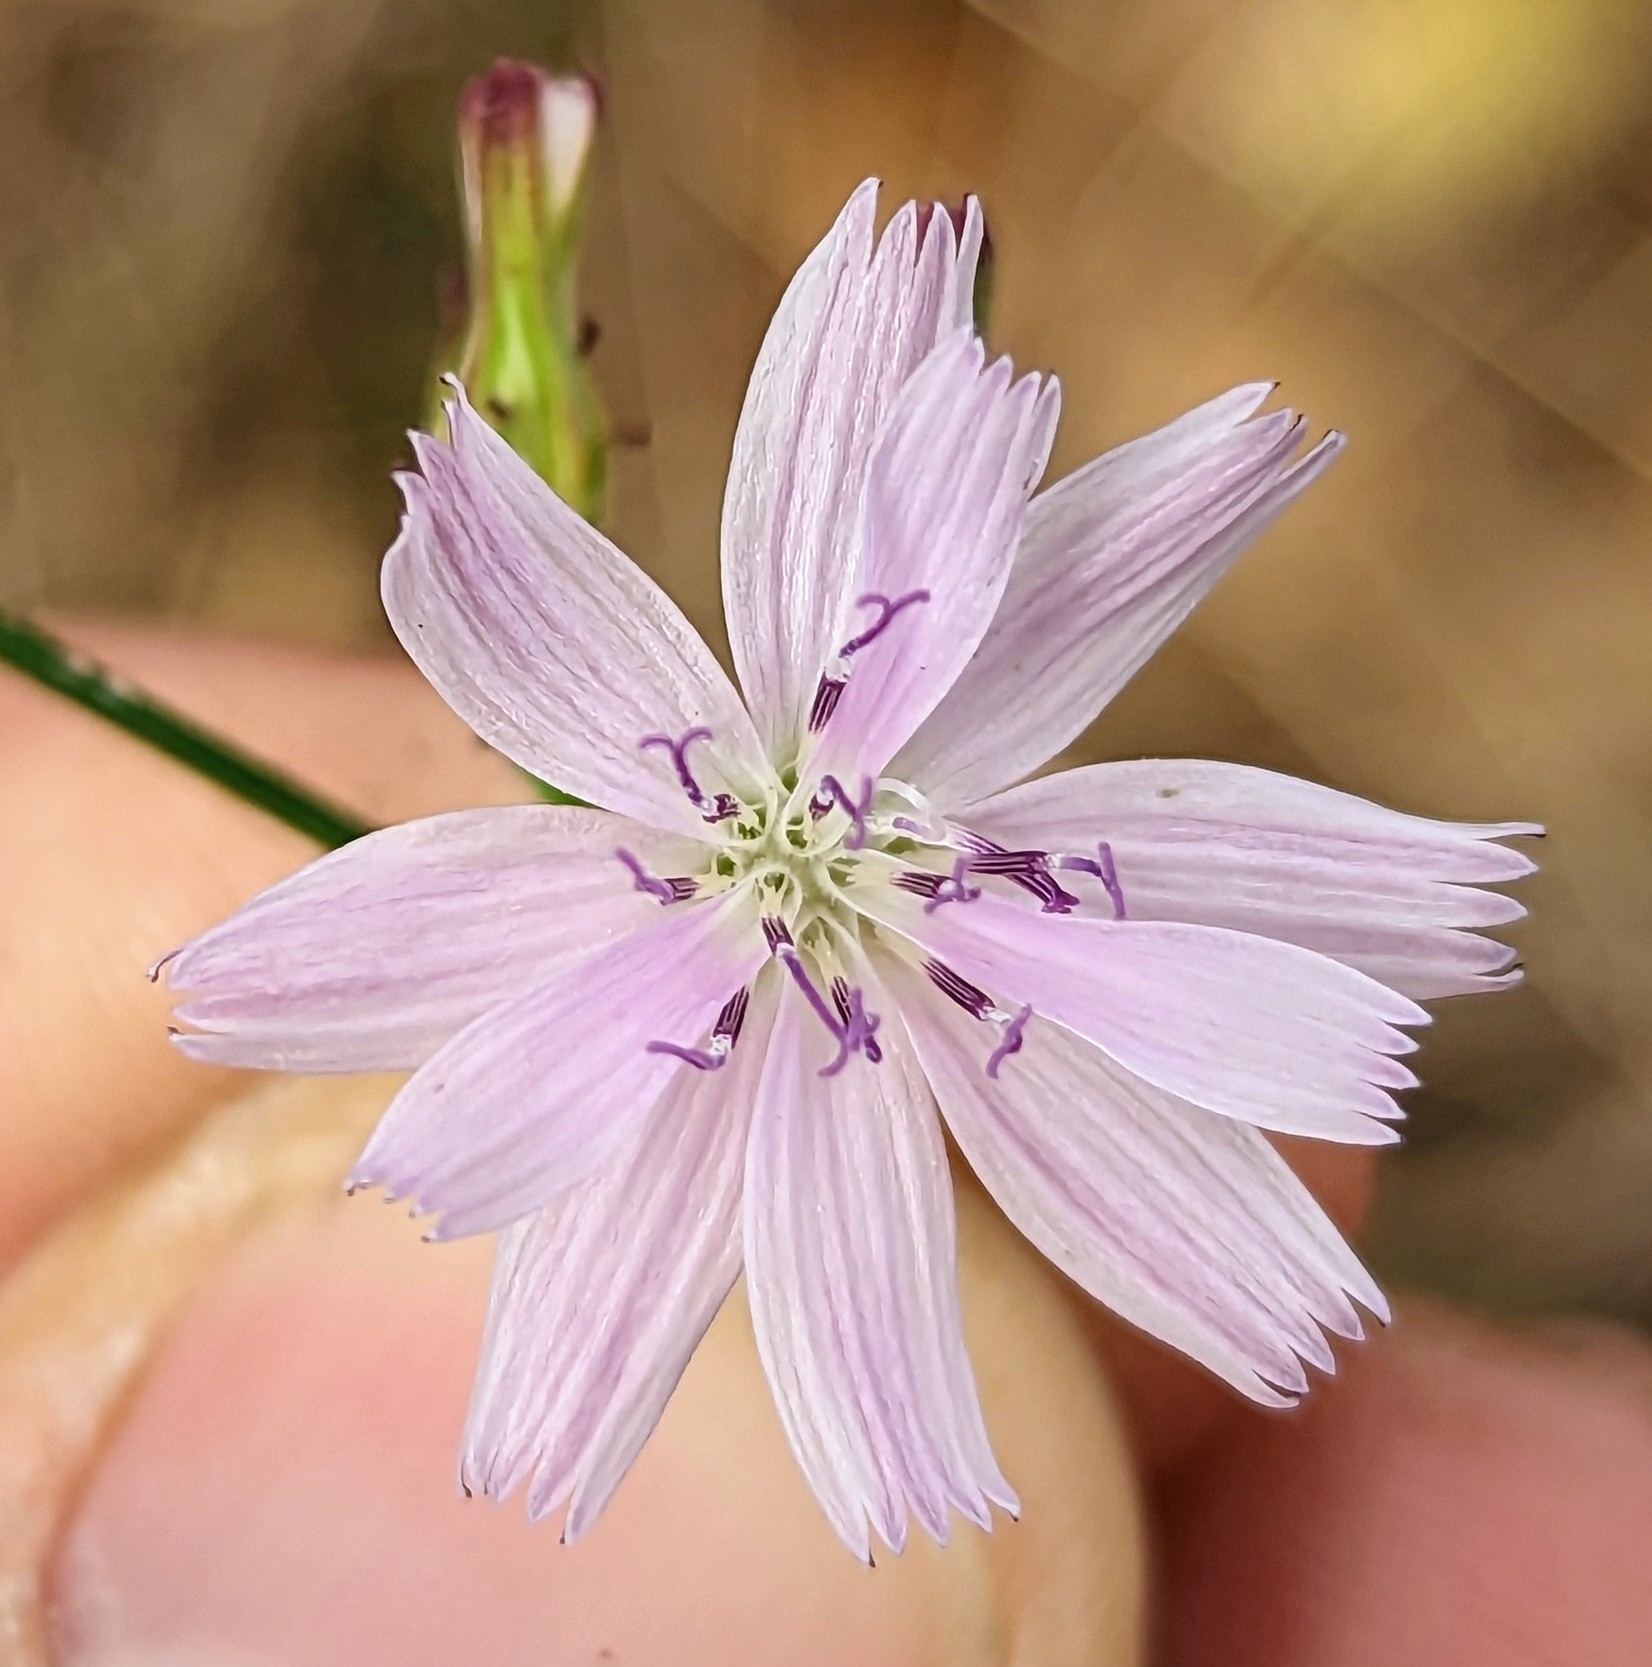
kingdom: Plantae
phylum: Tracheophyta
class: Magnoliopsida
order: Asterales
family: Asteraceae
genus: Stephanomeria
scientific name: Stephanomeria diegensis
